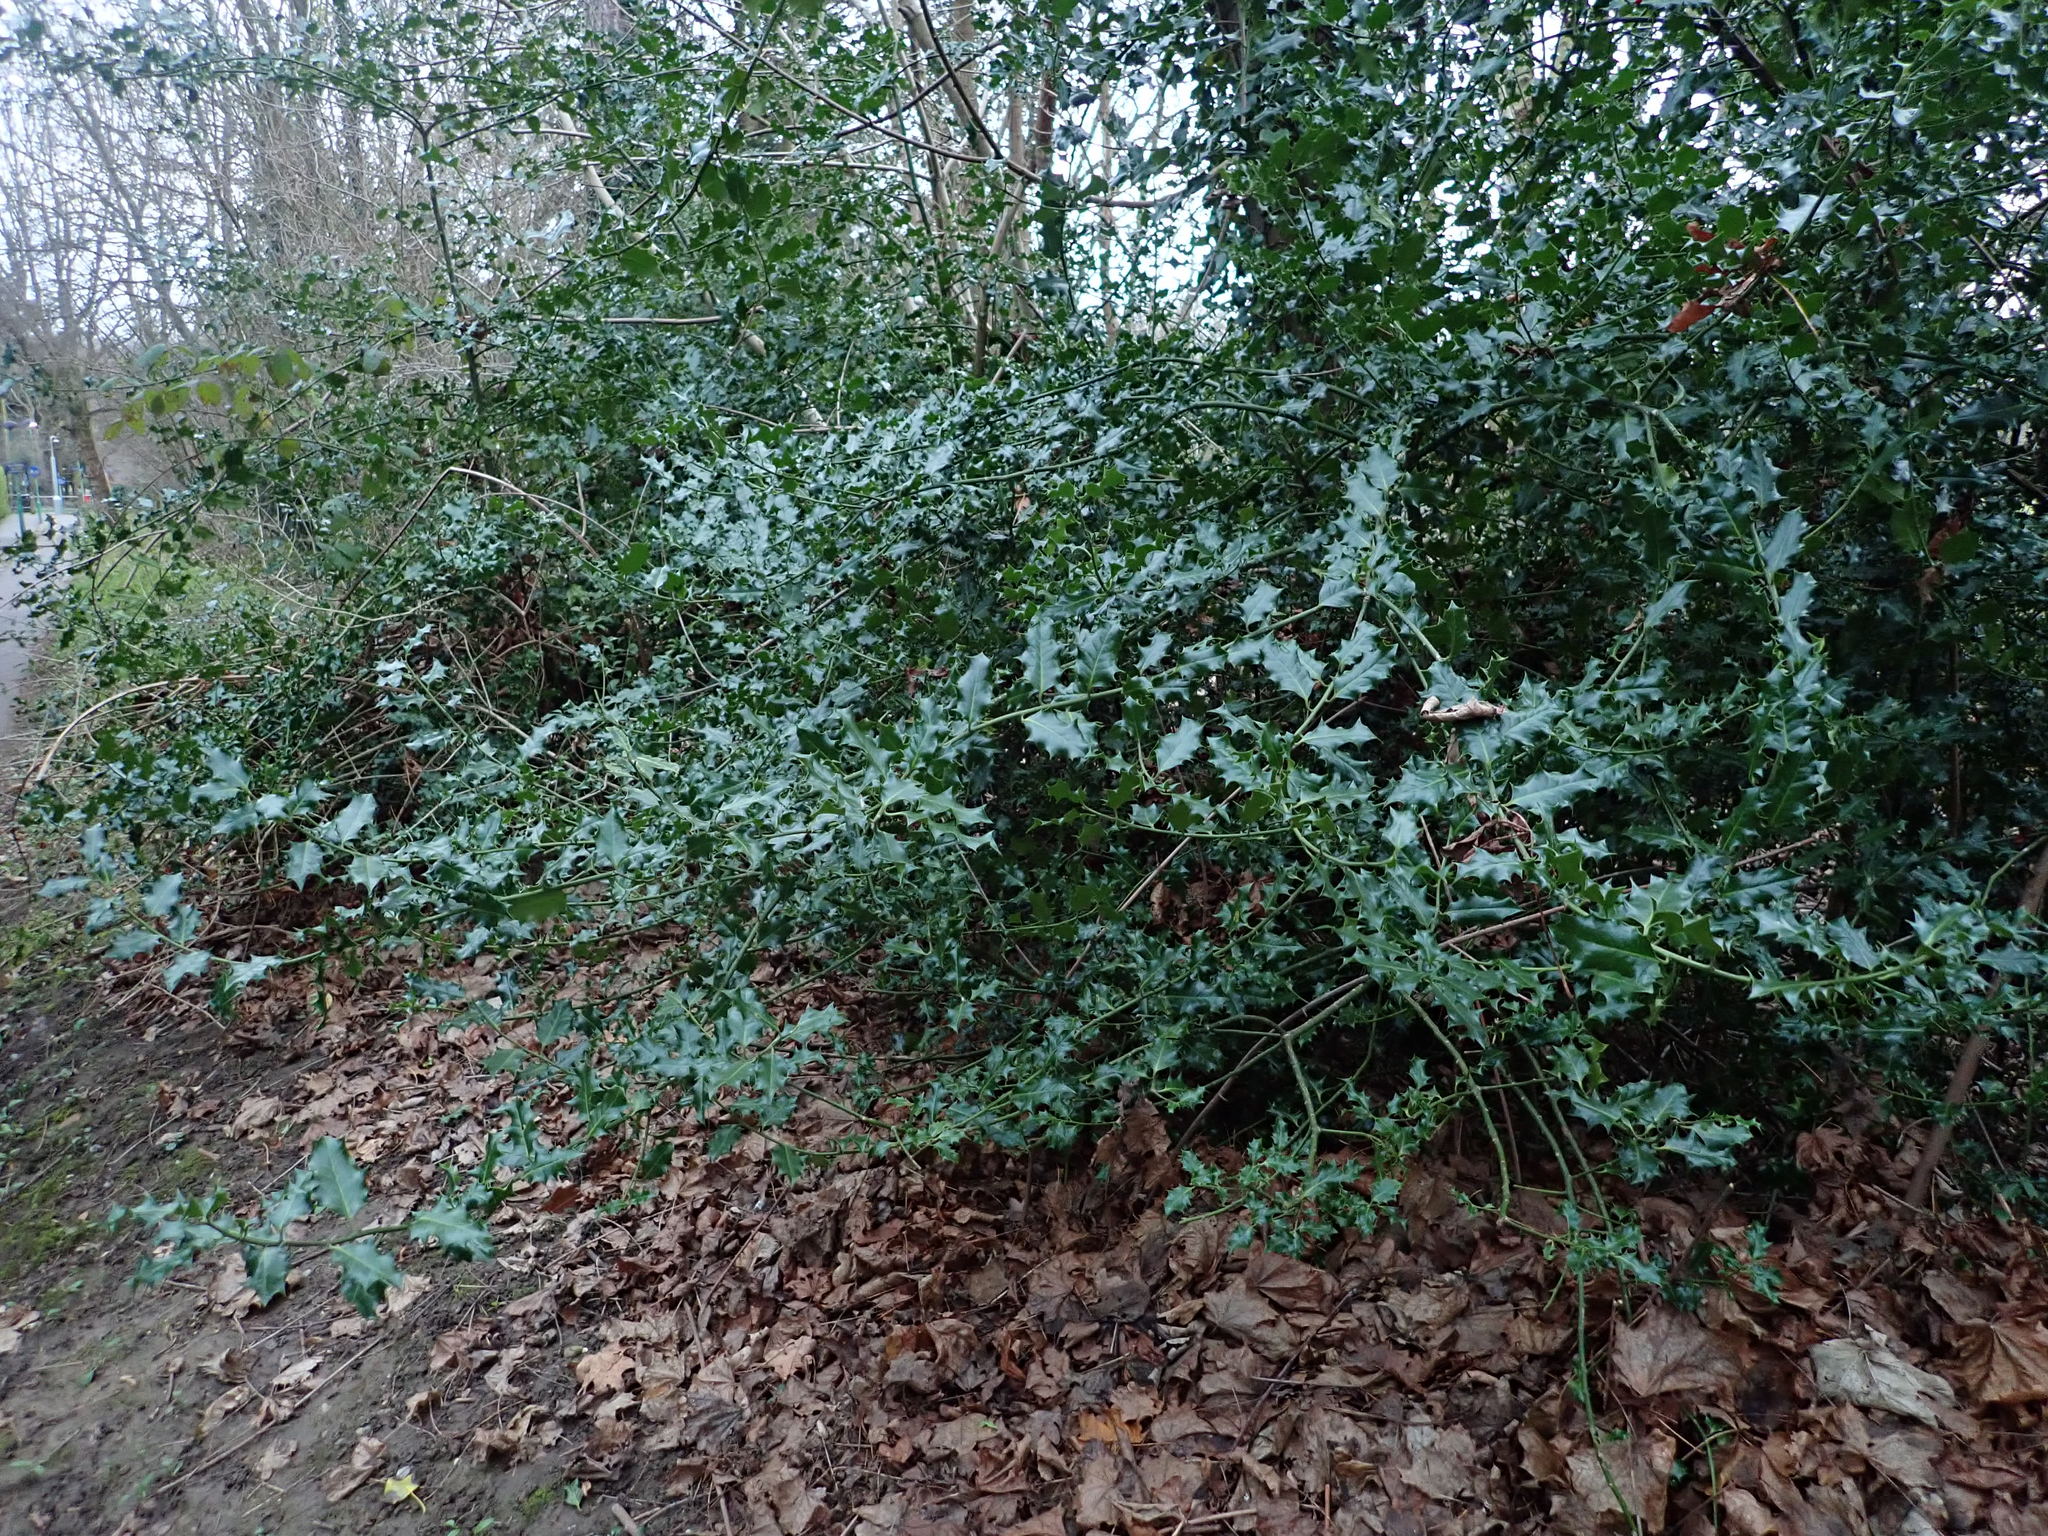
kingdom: Plantae
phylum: Tracheophyta
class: Magnoliopsida
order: Aquifoliales
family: Aquifoliaceae
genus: Ilex
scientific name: Ilex aquifolium
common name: English holly
